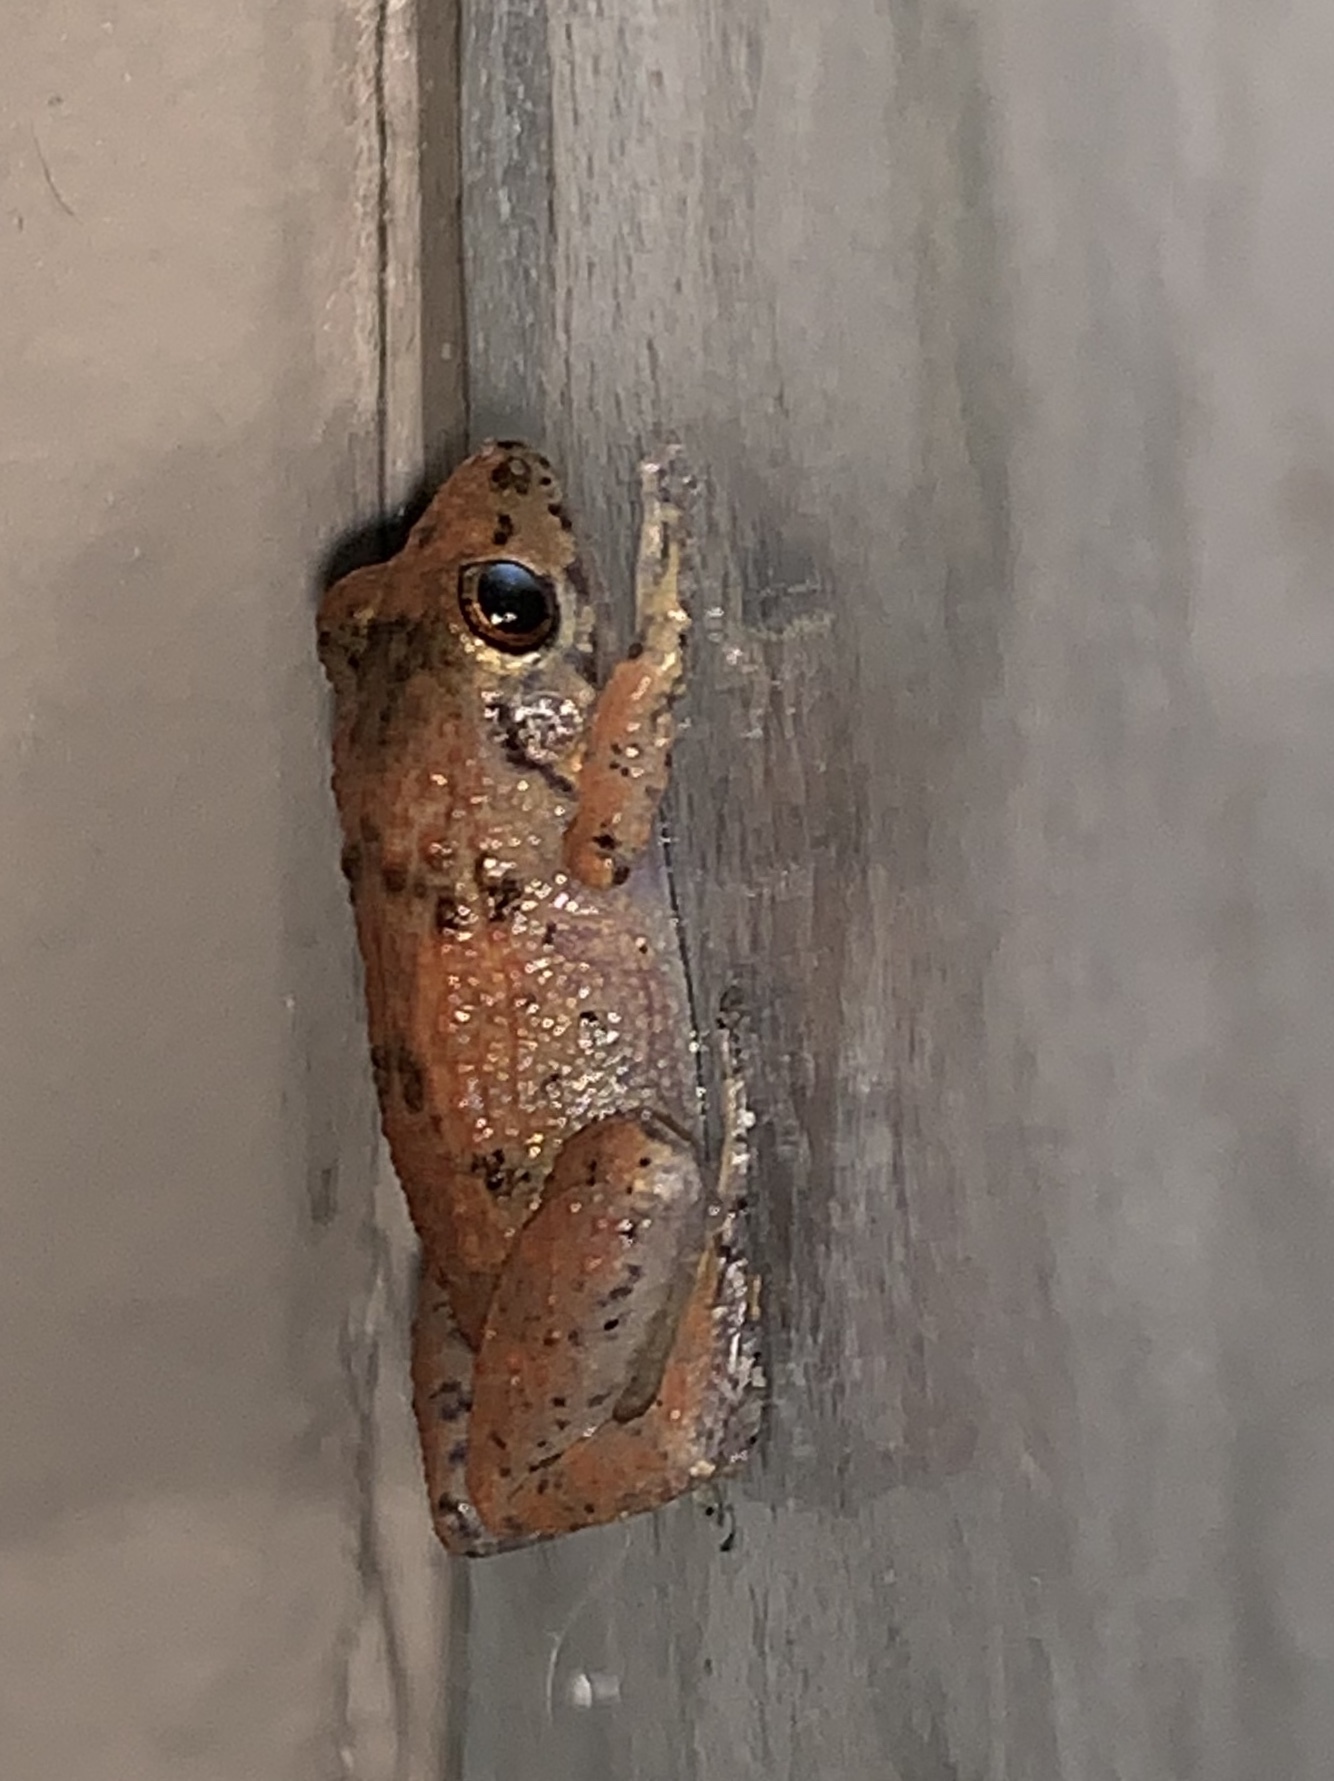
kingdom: Animalia
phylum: Chordata
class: Amphibia
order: Anura
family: Eleutherodactylidae
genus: Eleutherodactylus
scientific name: Eleutherodactylus planirostris
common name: Greenhouse frog
